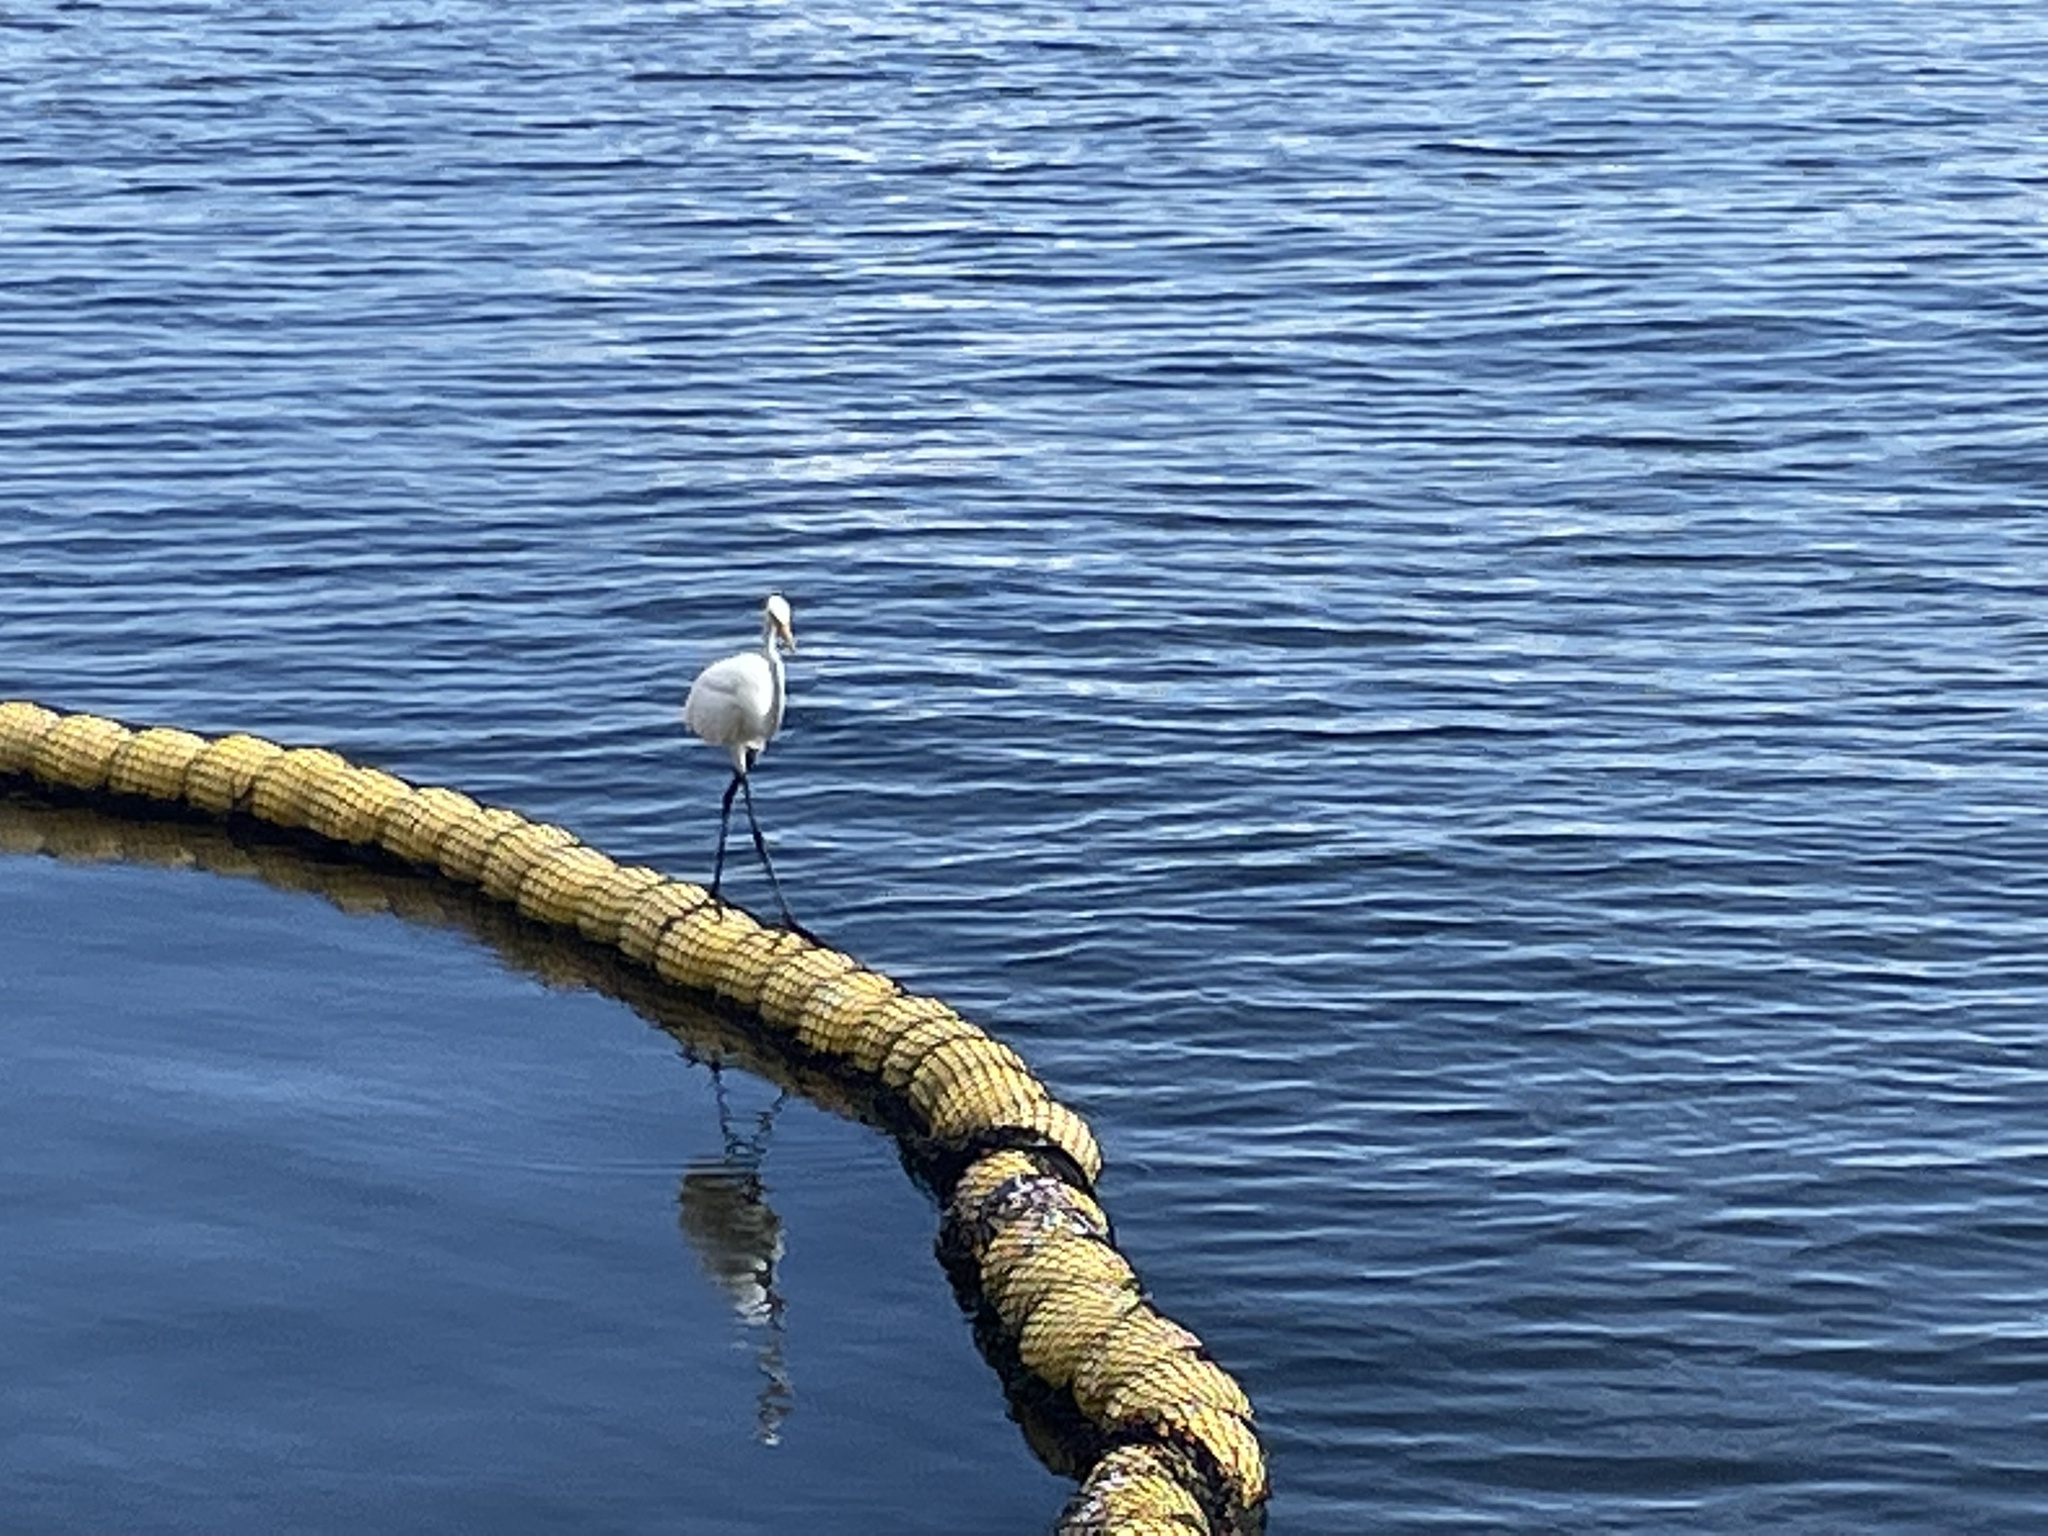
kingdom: Animalia
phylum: Chordata
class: Aves
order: Pelecaniformes
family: Ardeidae
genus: Ardea
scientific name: Ardea alba
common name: Great egret
